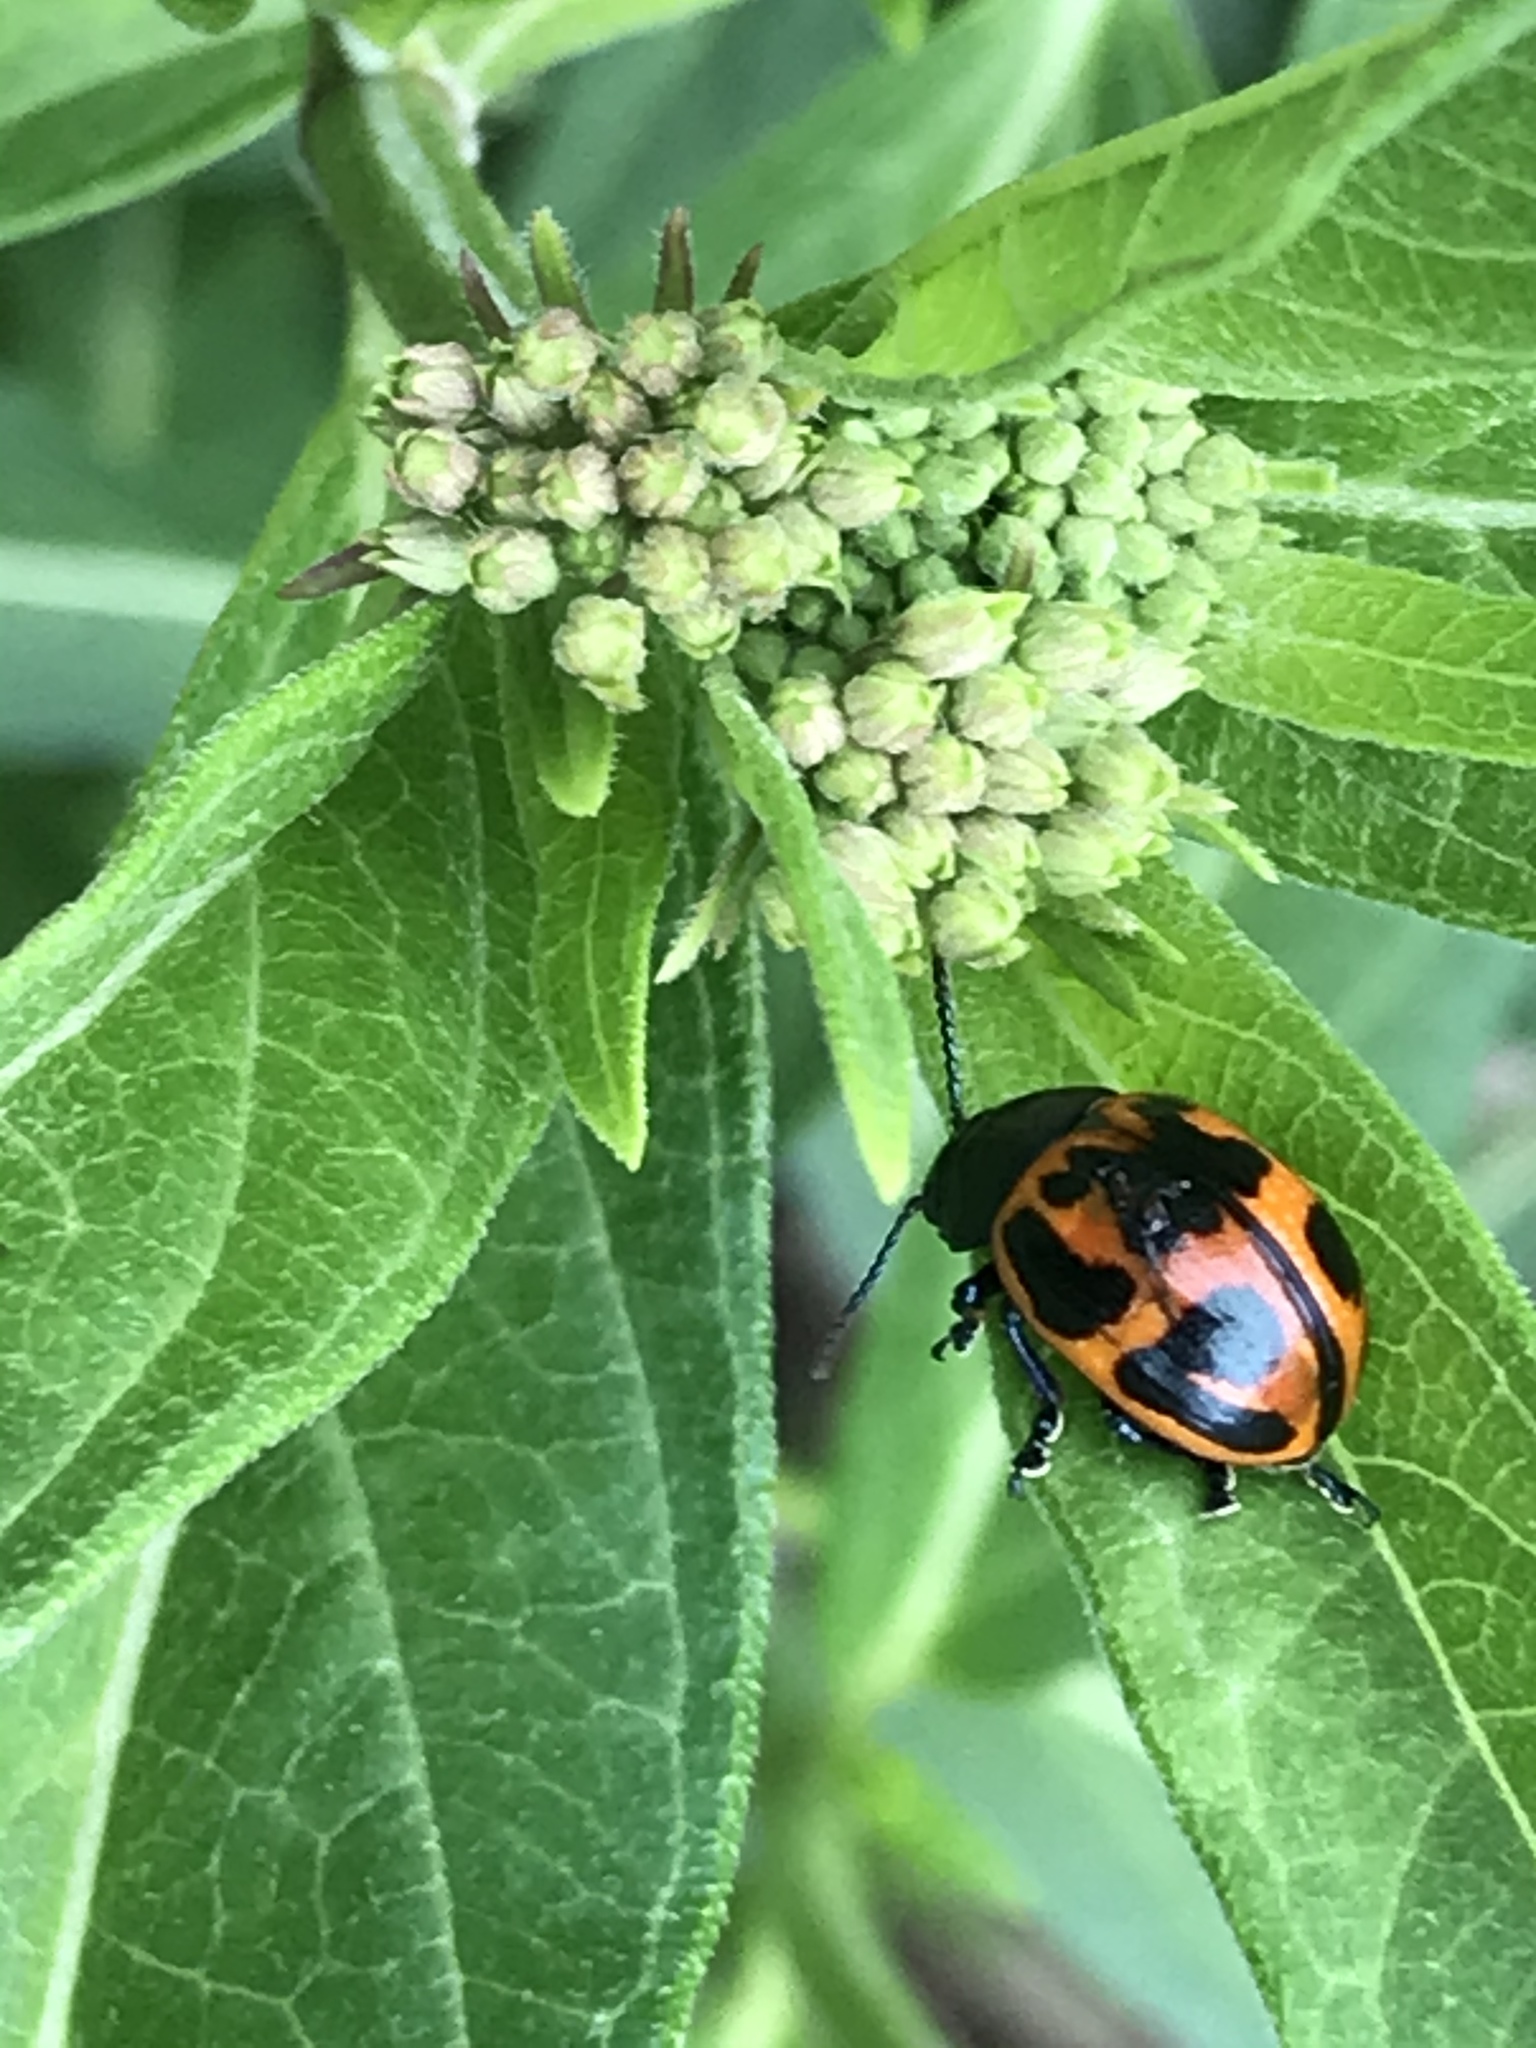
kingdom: Animalia
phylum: Arthropoda
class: Insecta
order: Coleoptera
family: Chrysomelidae
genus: Labidomera
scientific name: Labidomera clivicollis
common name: Swamp milkweed leaf beetle
